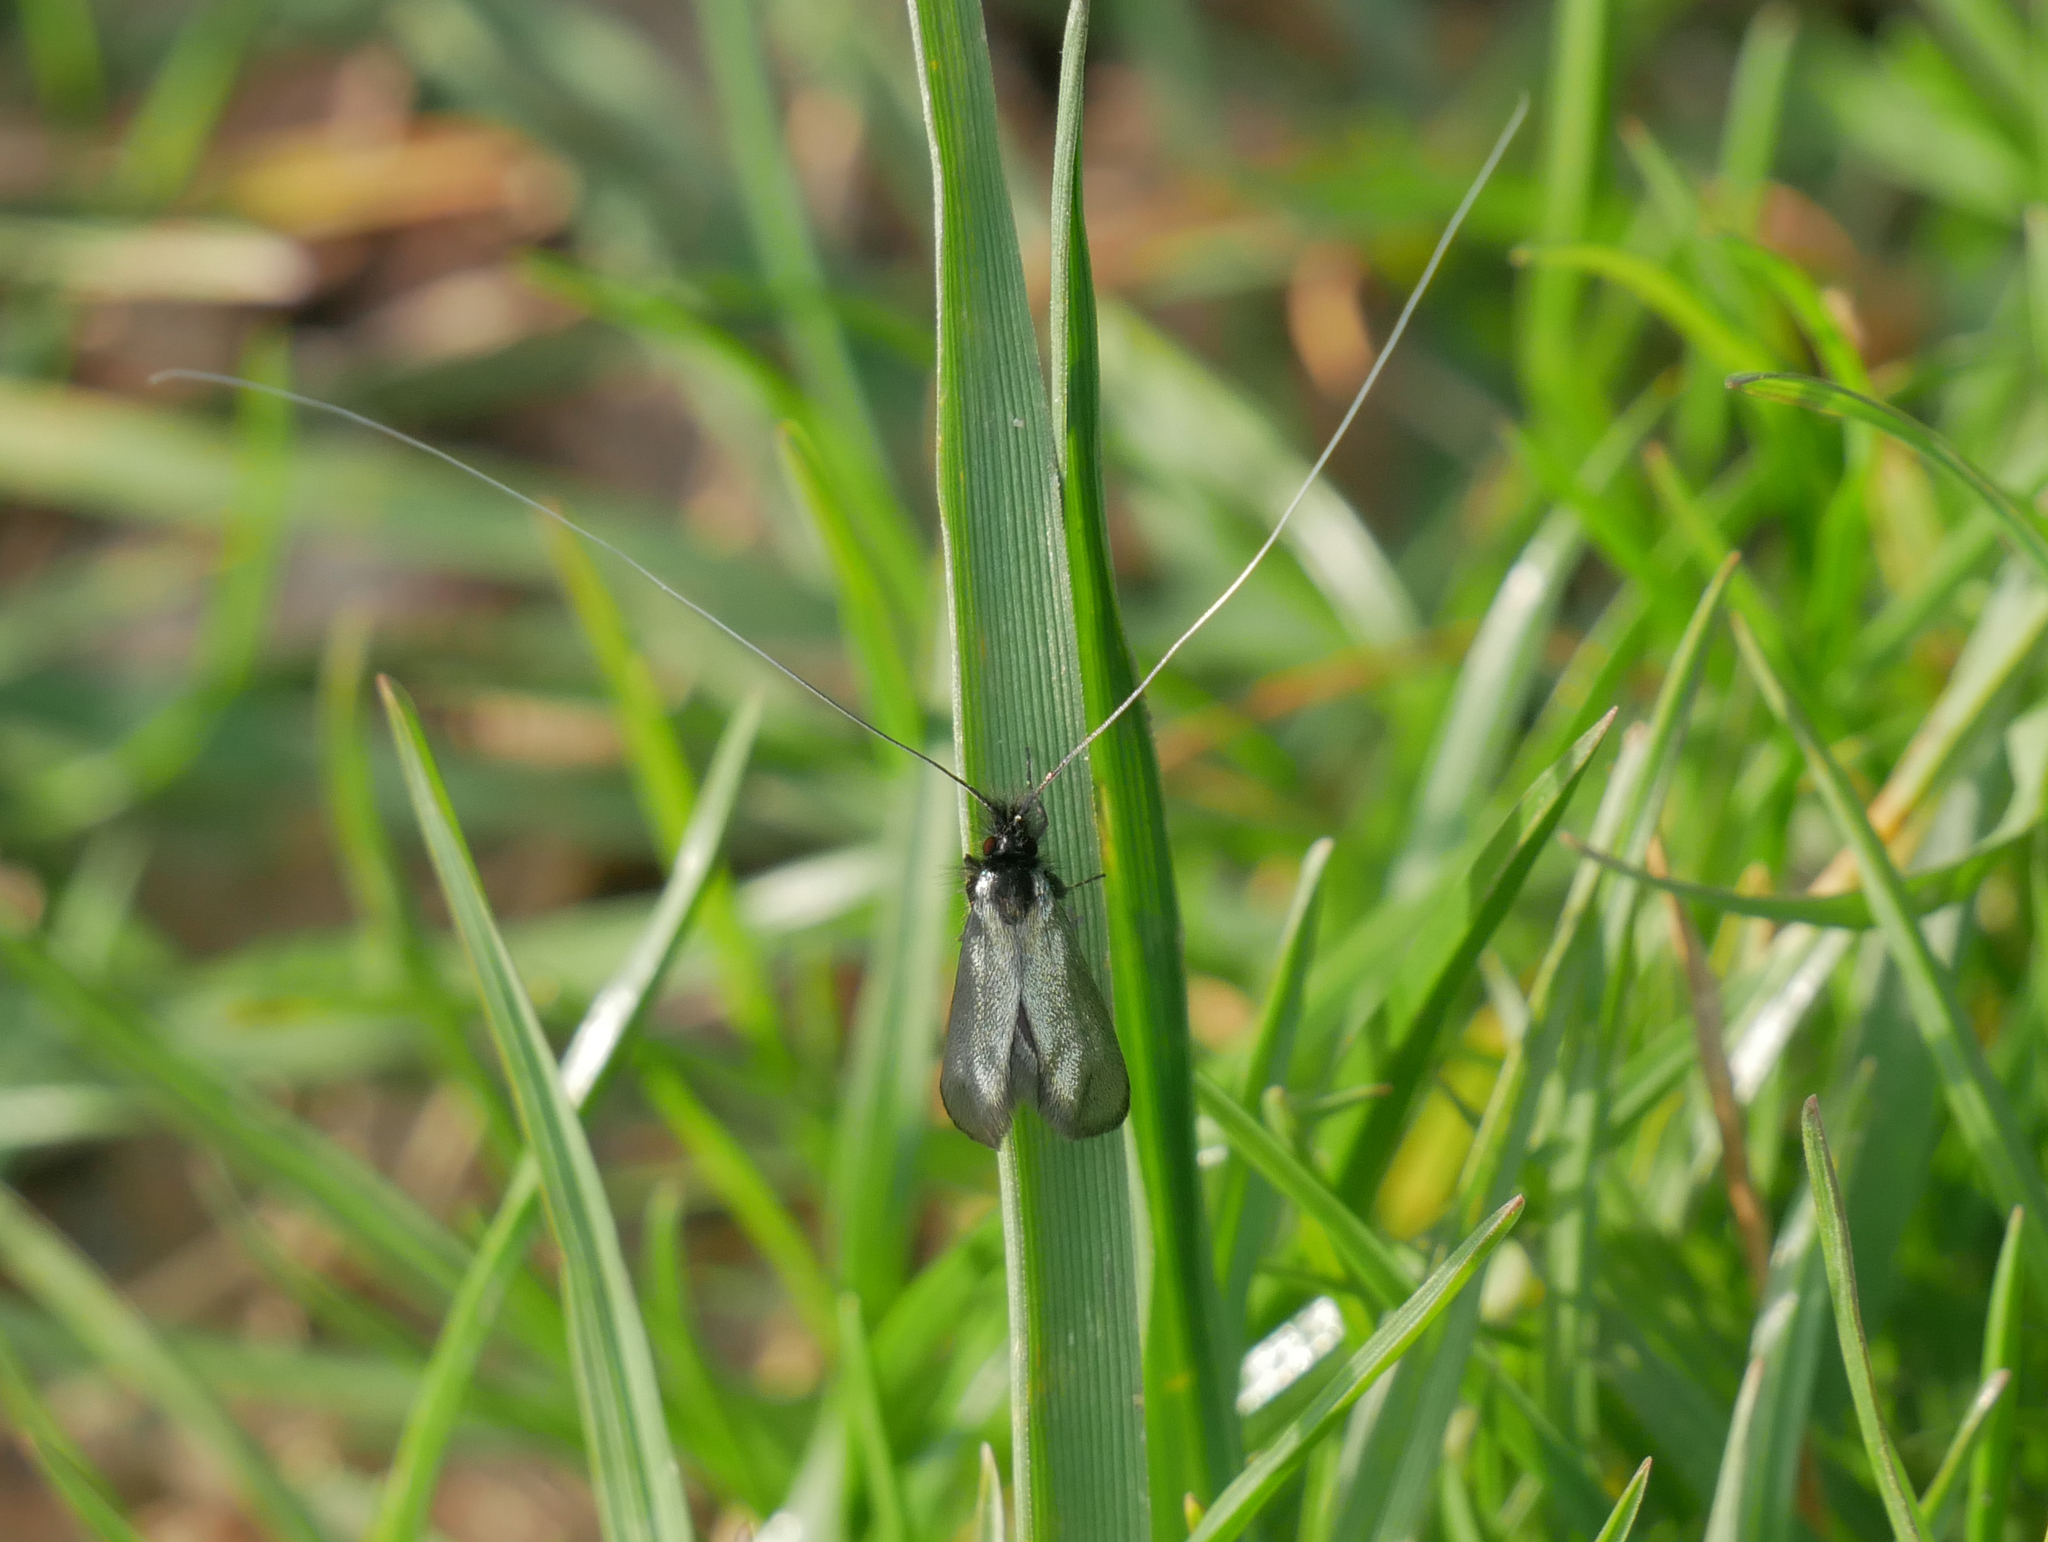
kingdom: Animalia
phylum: Arthropoda
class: Insecta
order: Lepidoptera
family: Adelidae
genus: Adela
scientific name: Adela viridella
